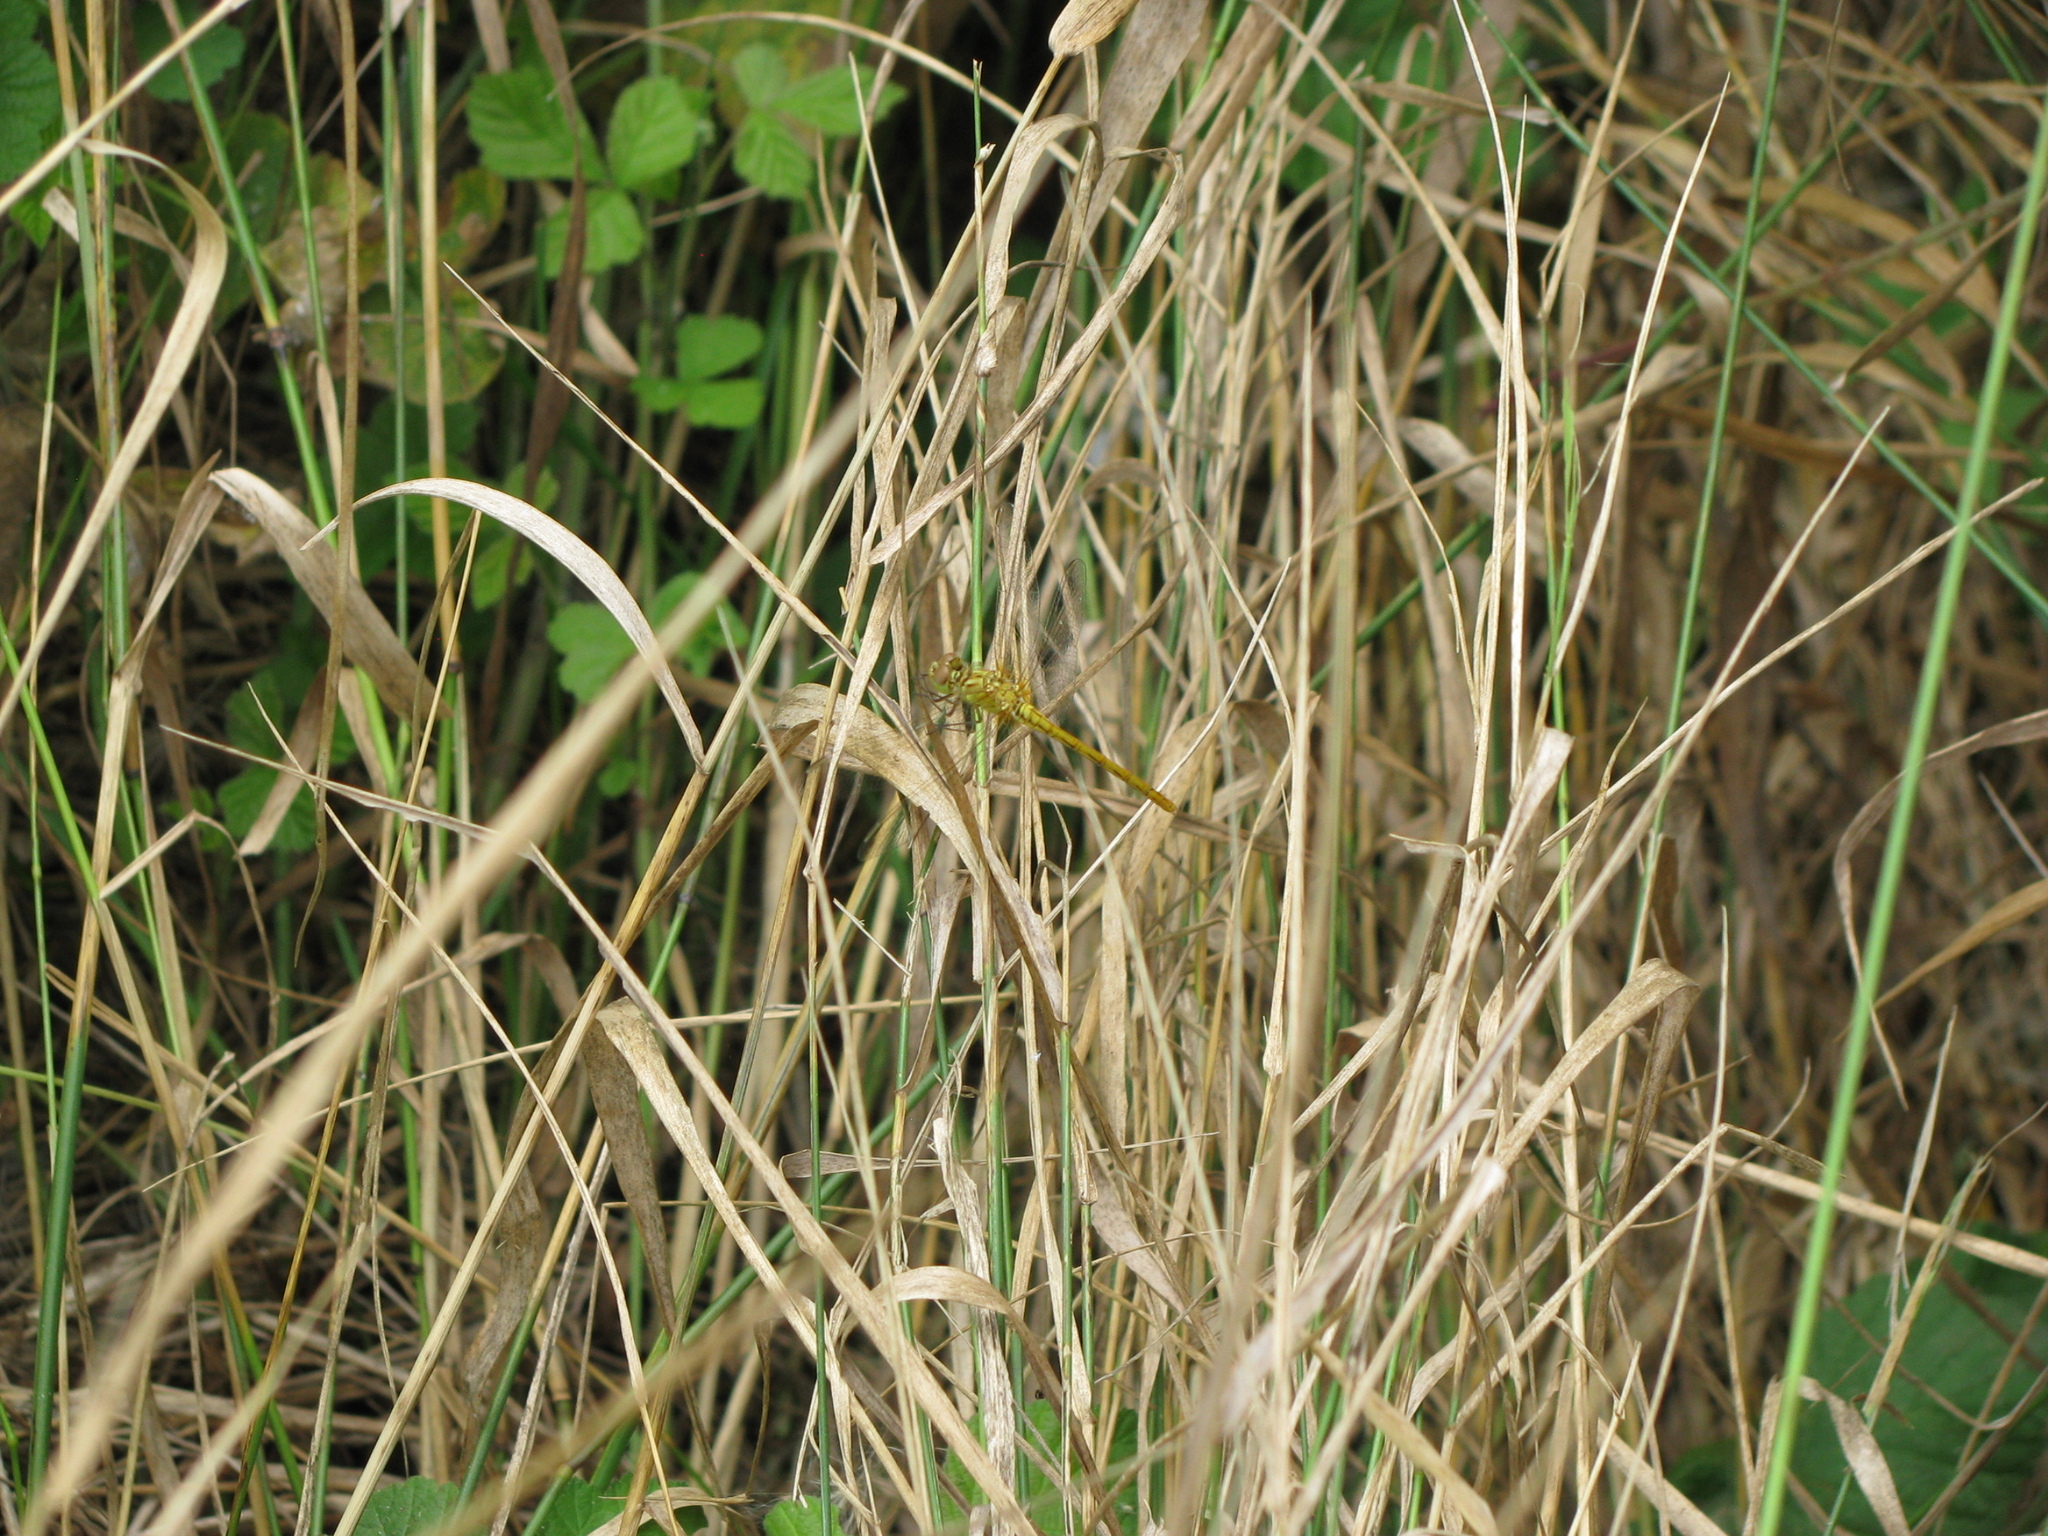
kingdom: Animalia
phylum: Arthropoda
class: Insecta
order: Odonata
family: Libellulidae
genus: Sympetrum
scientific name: Sympetrum meridionale
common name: Southern darter
